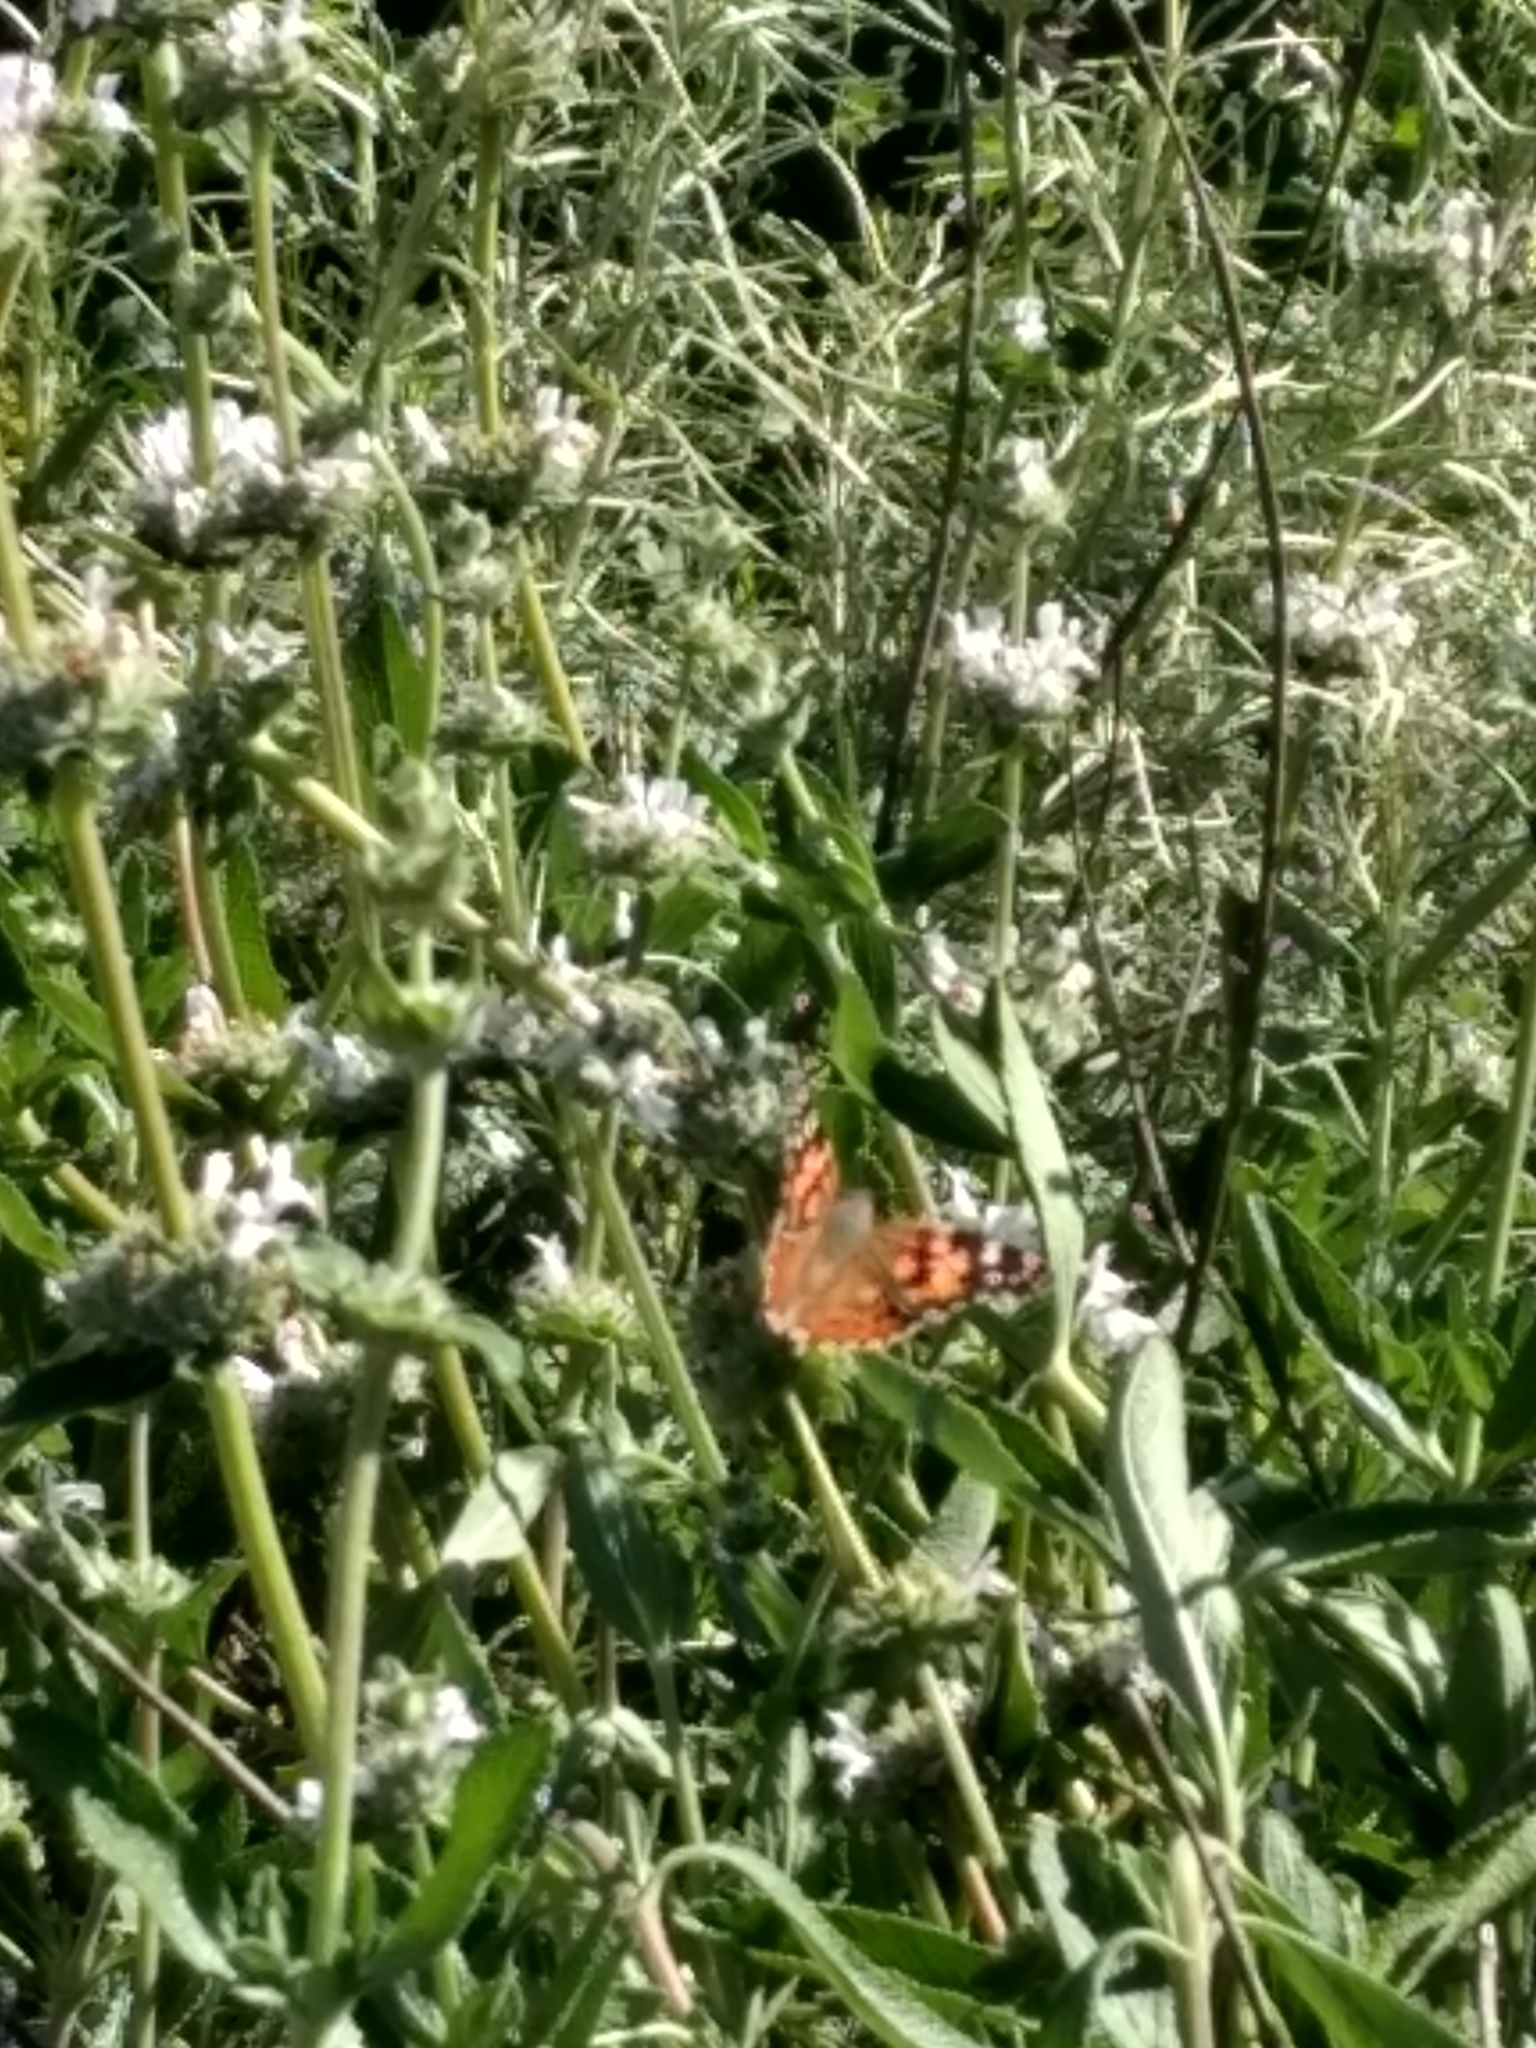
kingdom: Animalia
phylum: Arthropoda
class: Insecta
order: Lepidoptera
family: Nymphalidae
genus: Vanessa
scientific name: Vanessa cardui
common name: Painted lady
